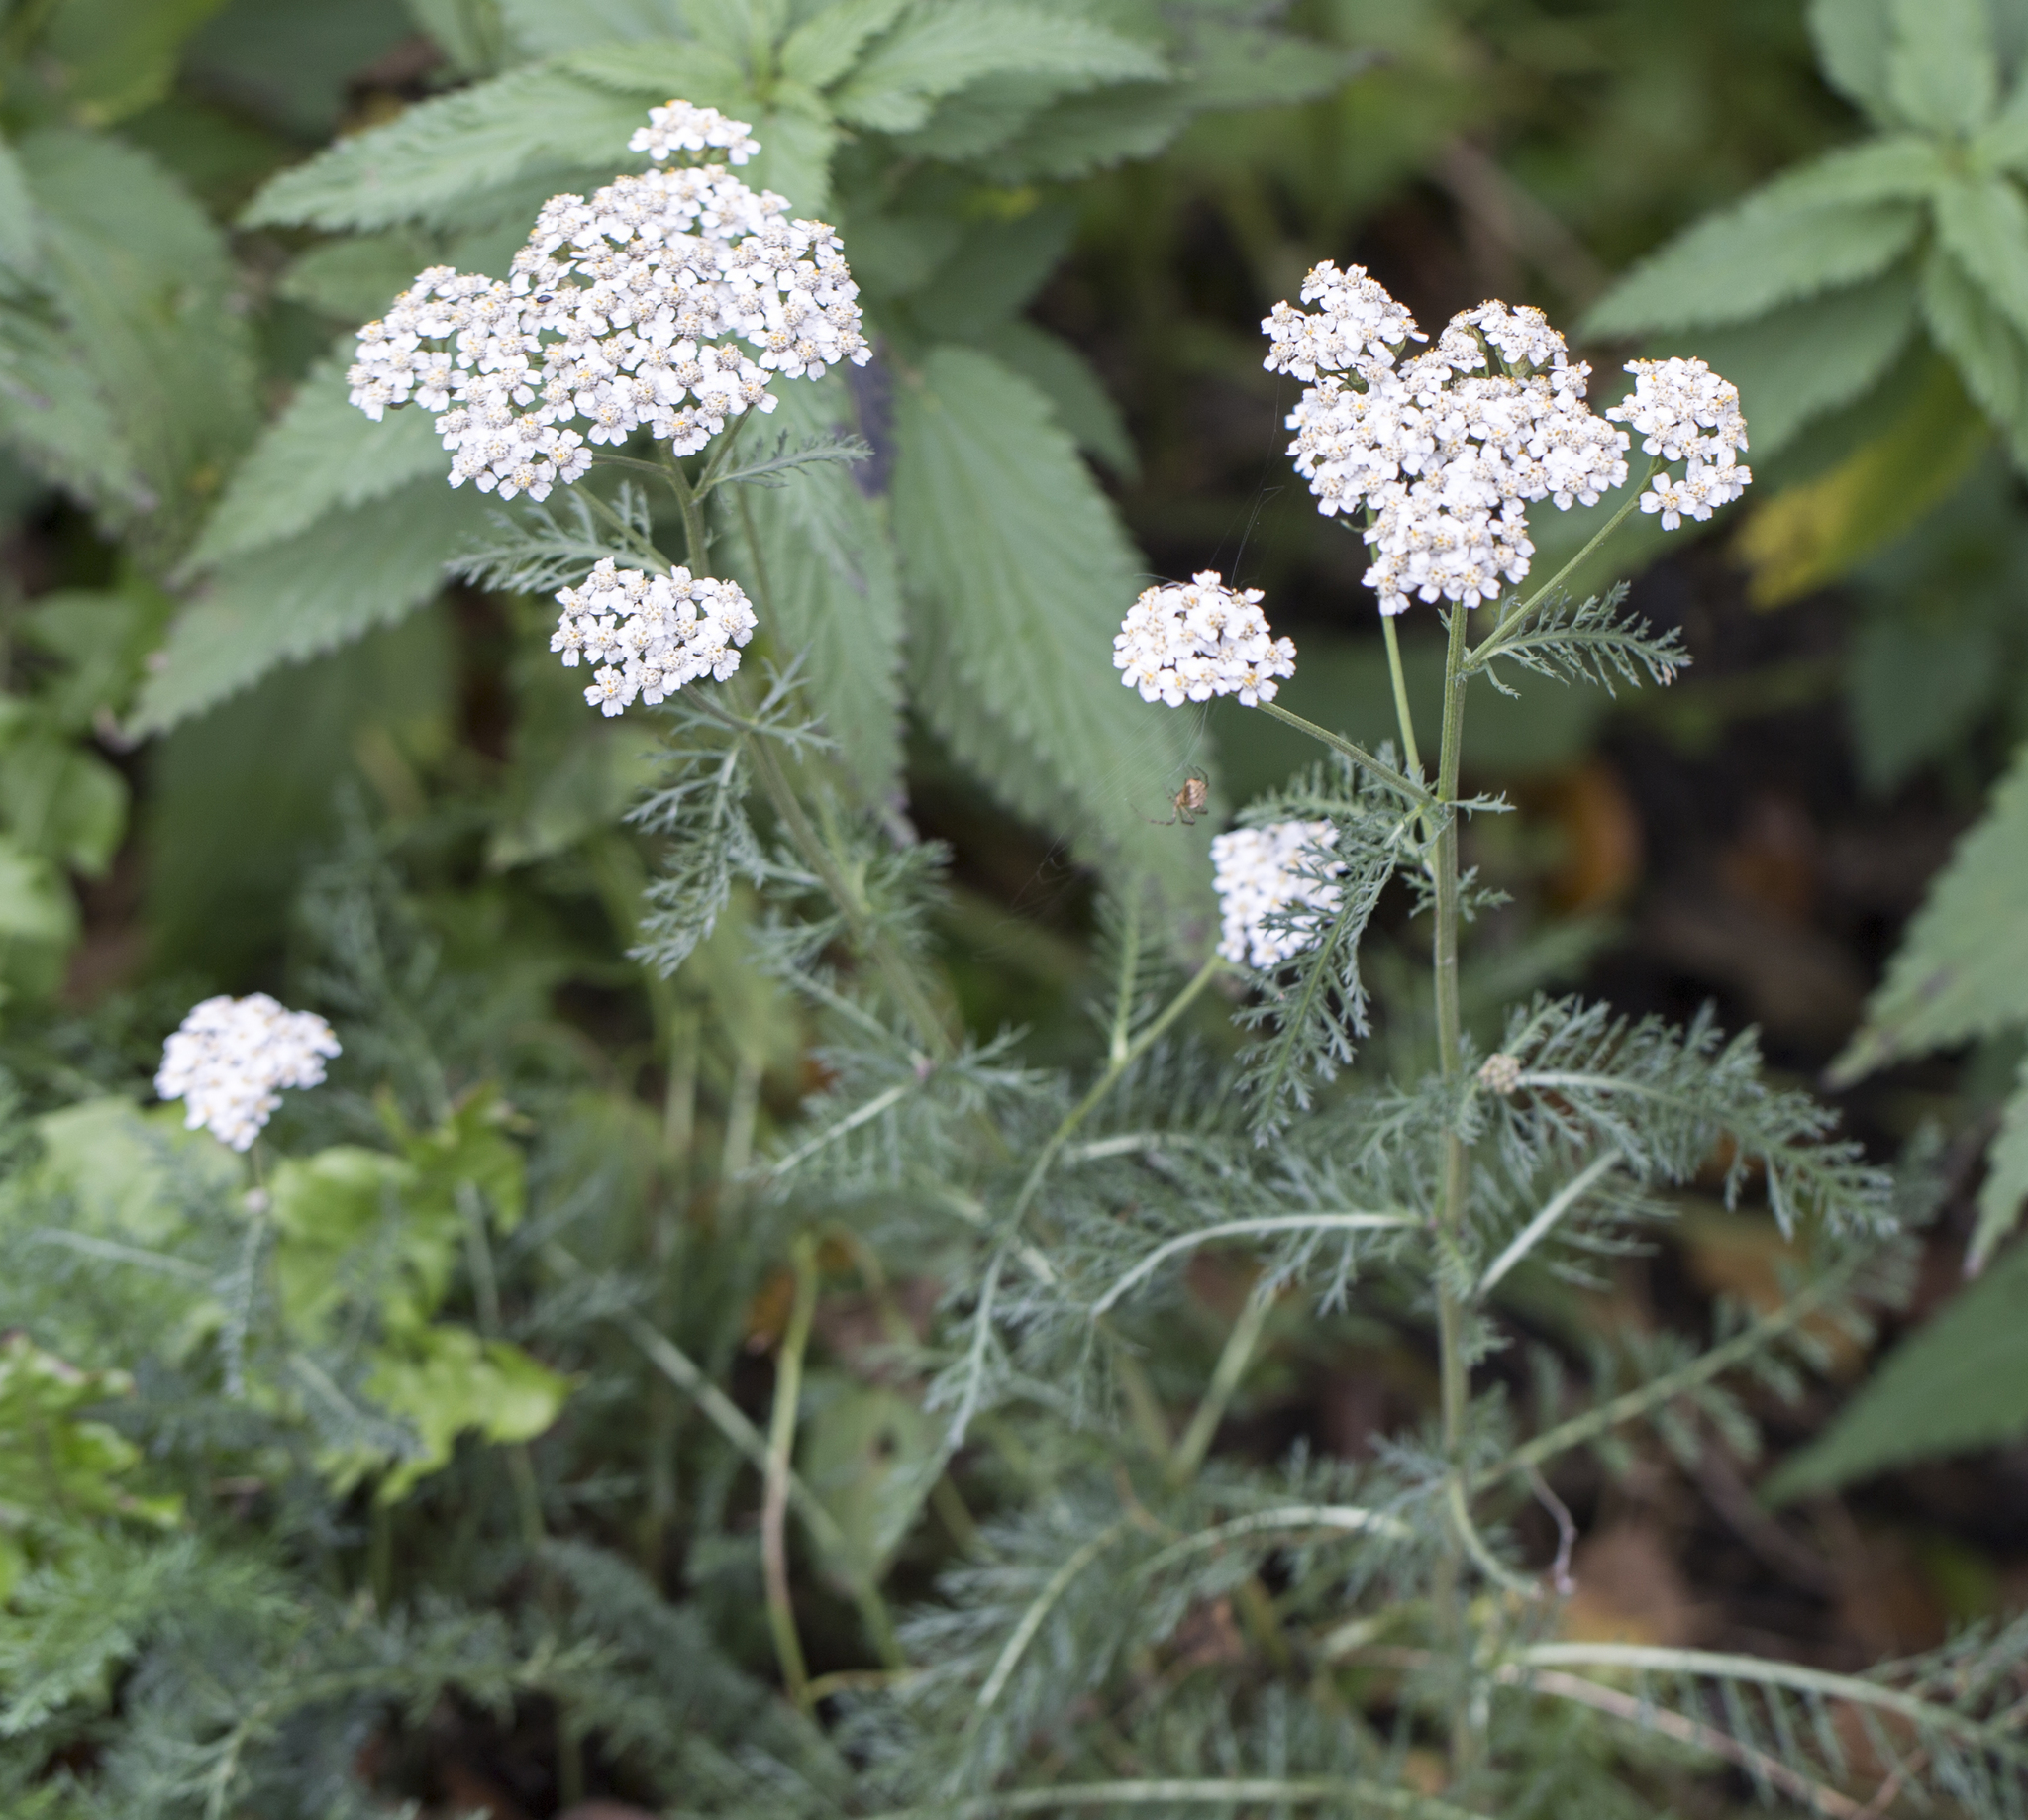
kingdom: Plantae
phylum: Tracheophyta
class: Magnoliopsida
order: Asterales
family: Asteraceae
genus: Achillea
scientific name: Achillea millefolium
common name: Yarrow
